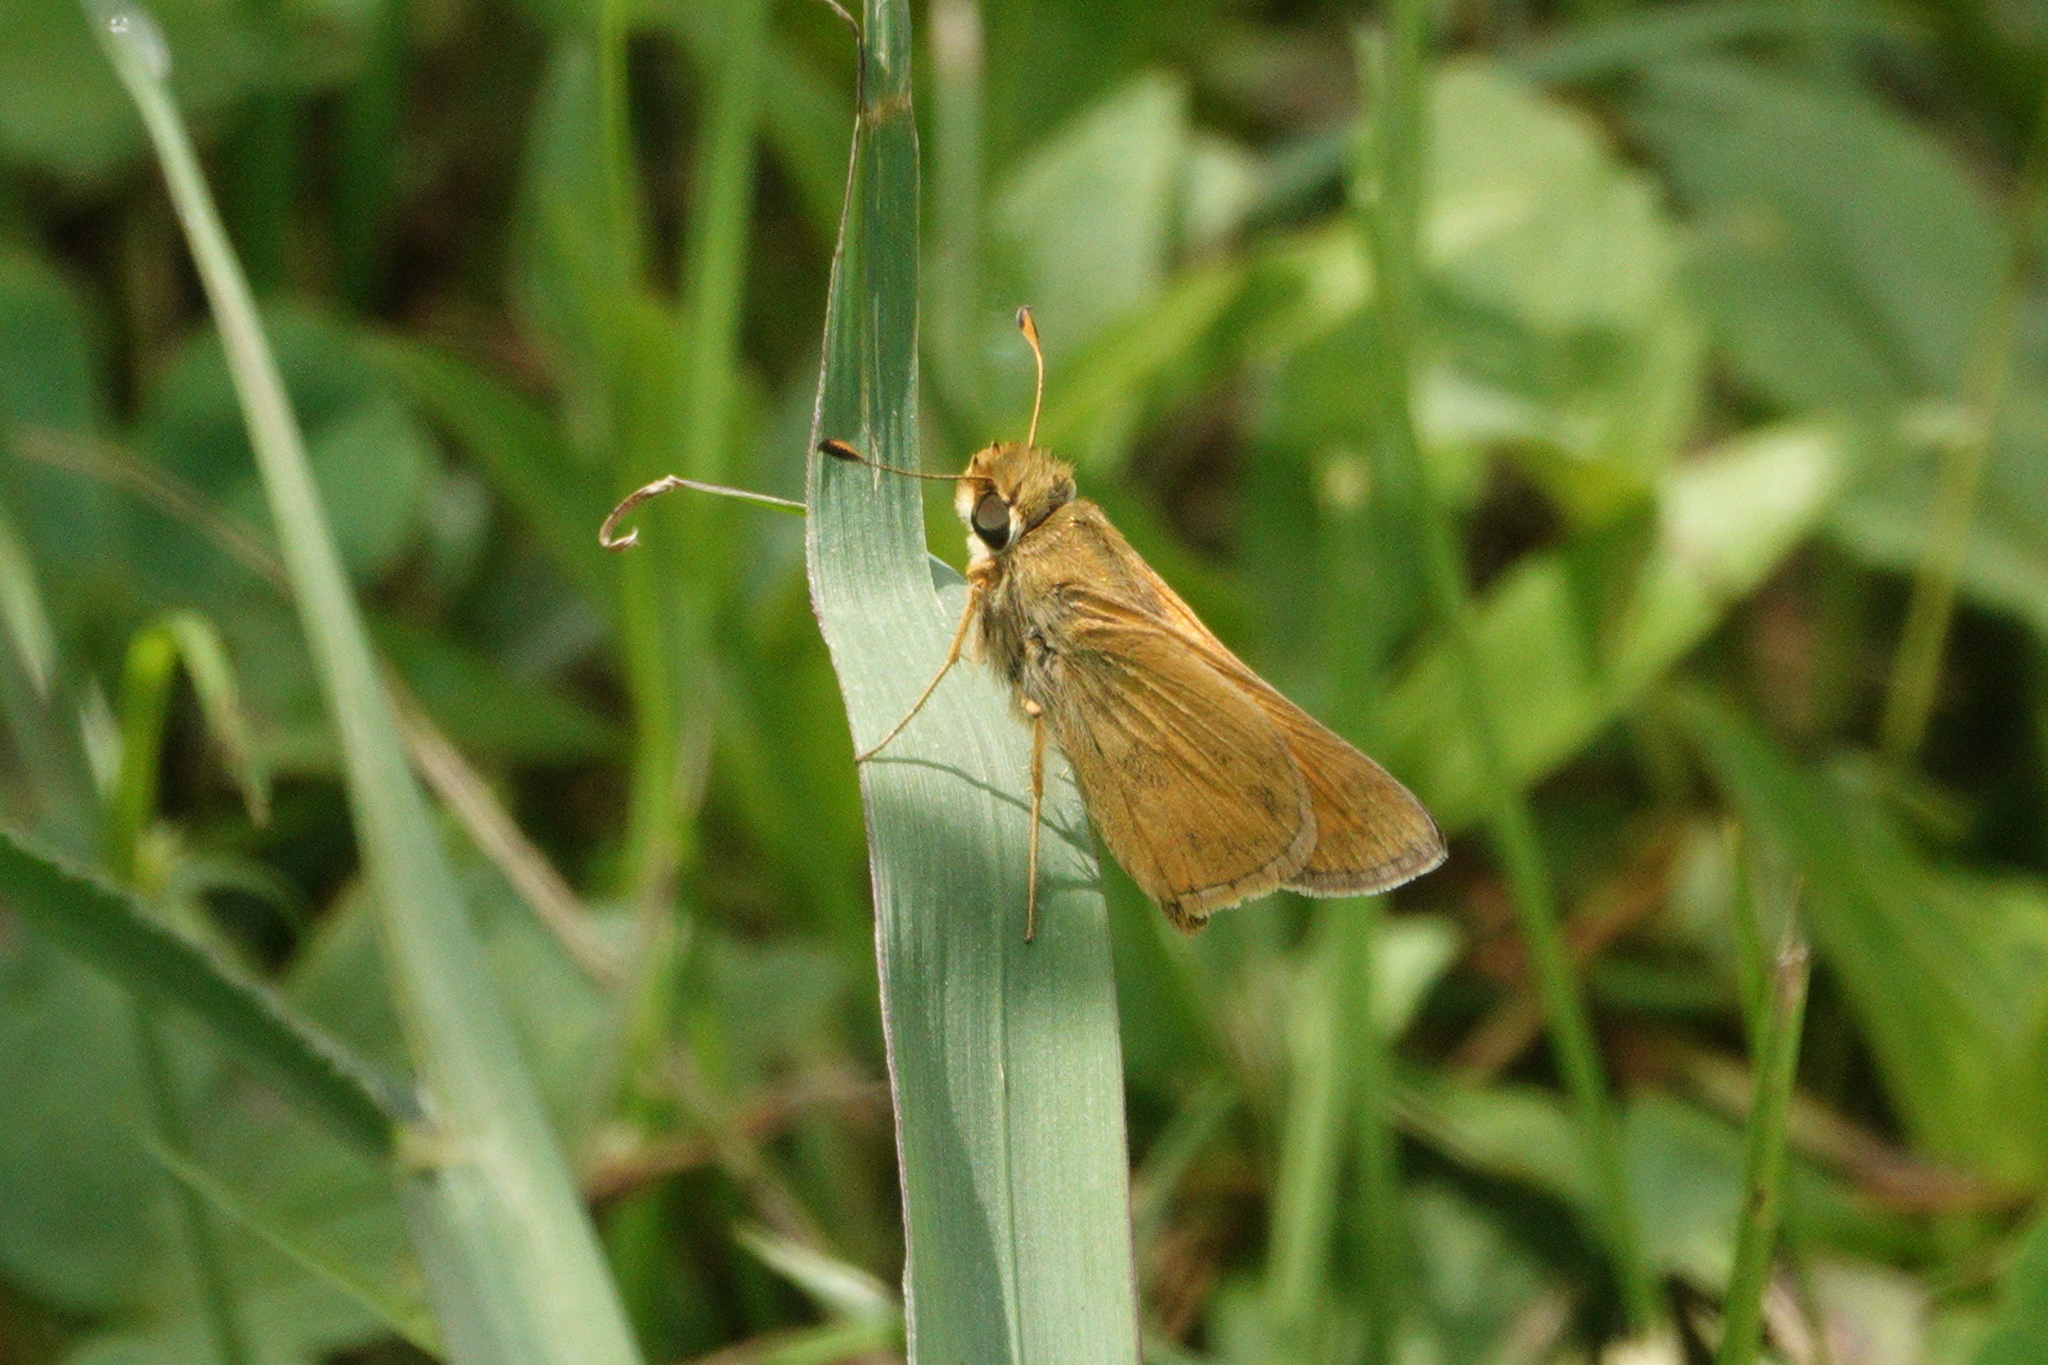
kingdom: Animalia
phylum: Arthropoda
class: Insecta
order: Lepidoptera
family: Hesperiidae
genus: Atalopedes
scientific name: Atalopedes
